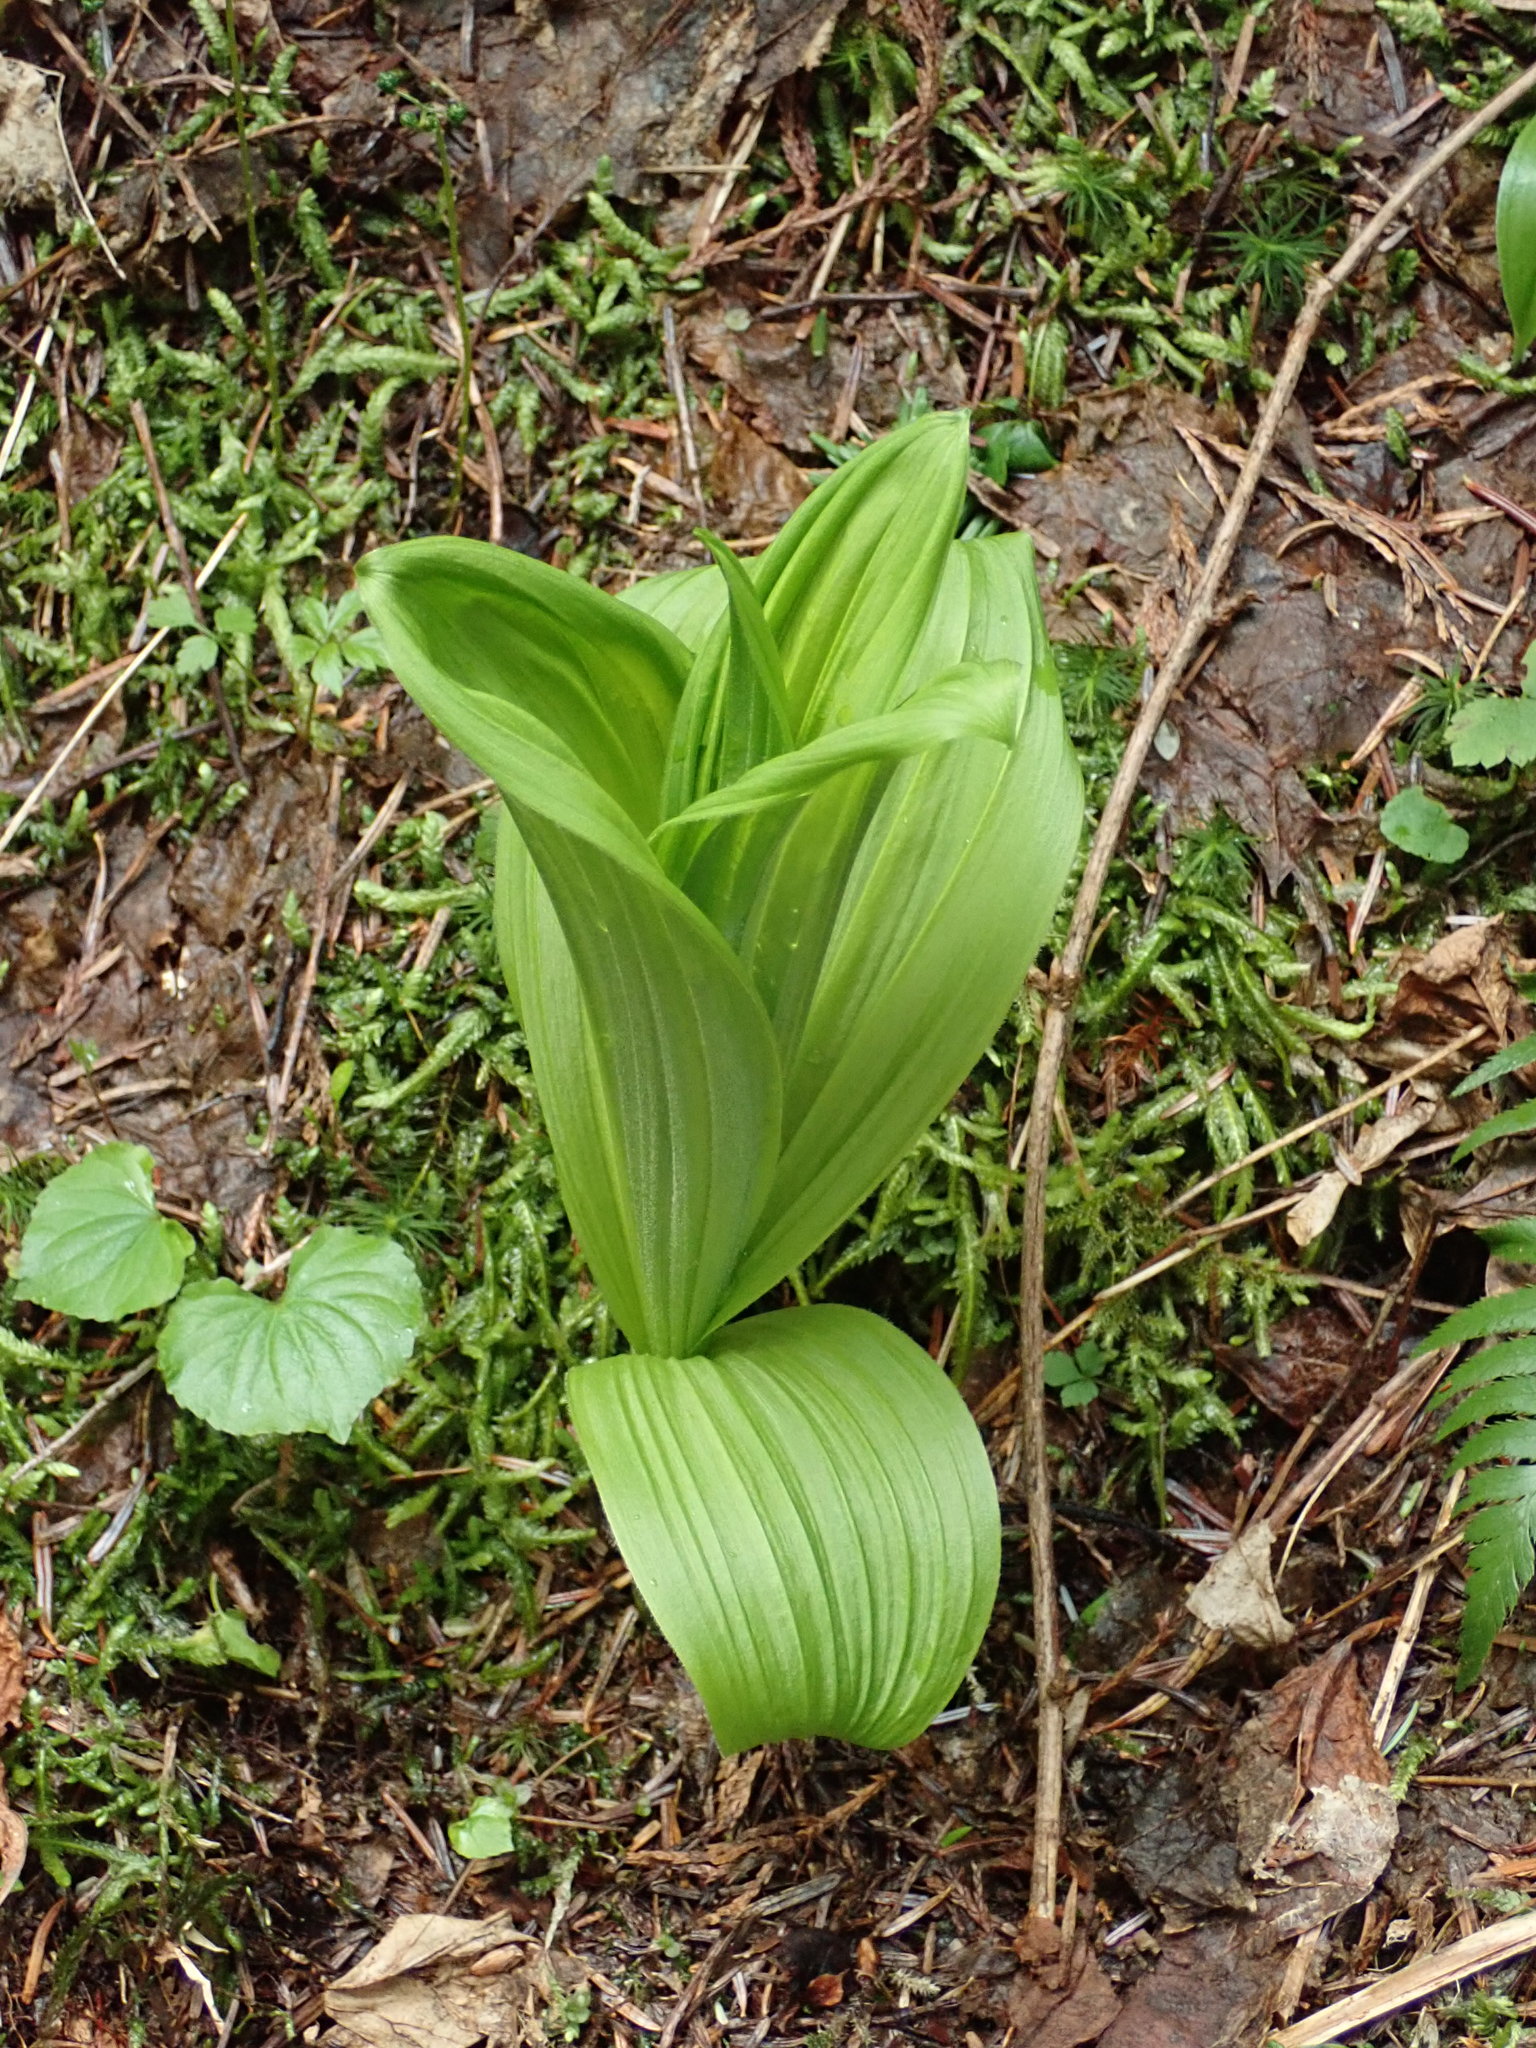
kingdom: Plantae
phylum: Tracheophyta
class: Liliopsida
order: Liliales
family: Melanthiaceae
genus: Veratrum
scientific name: Veratrum viride
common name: American false hellebore
